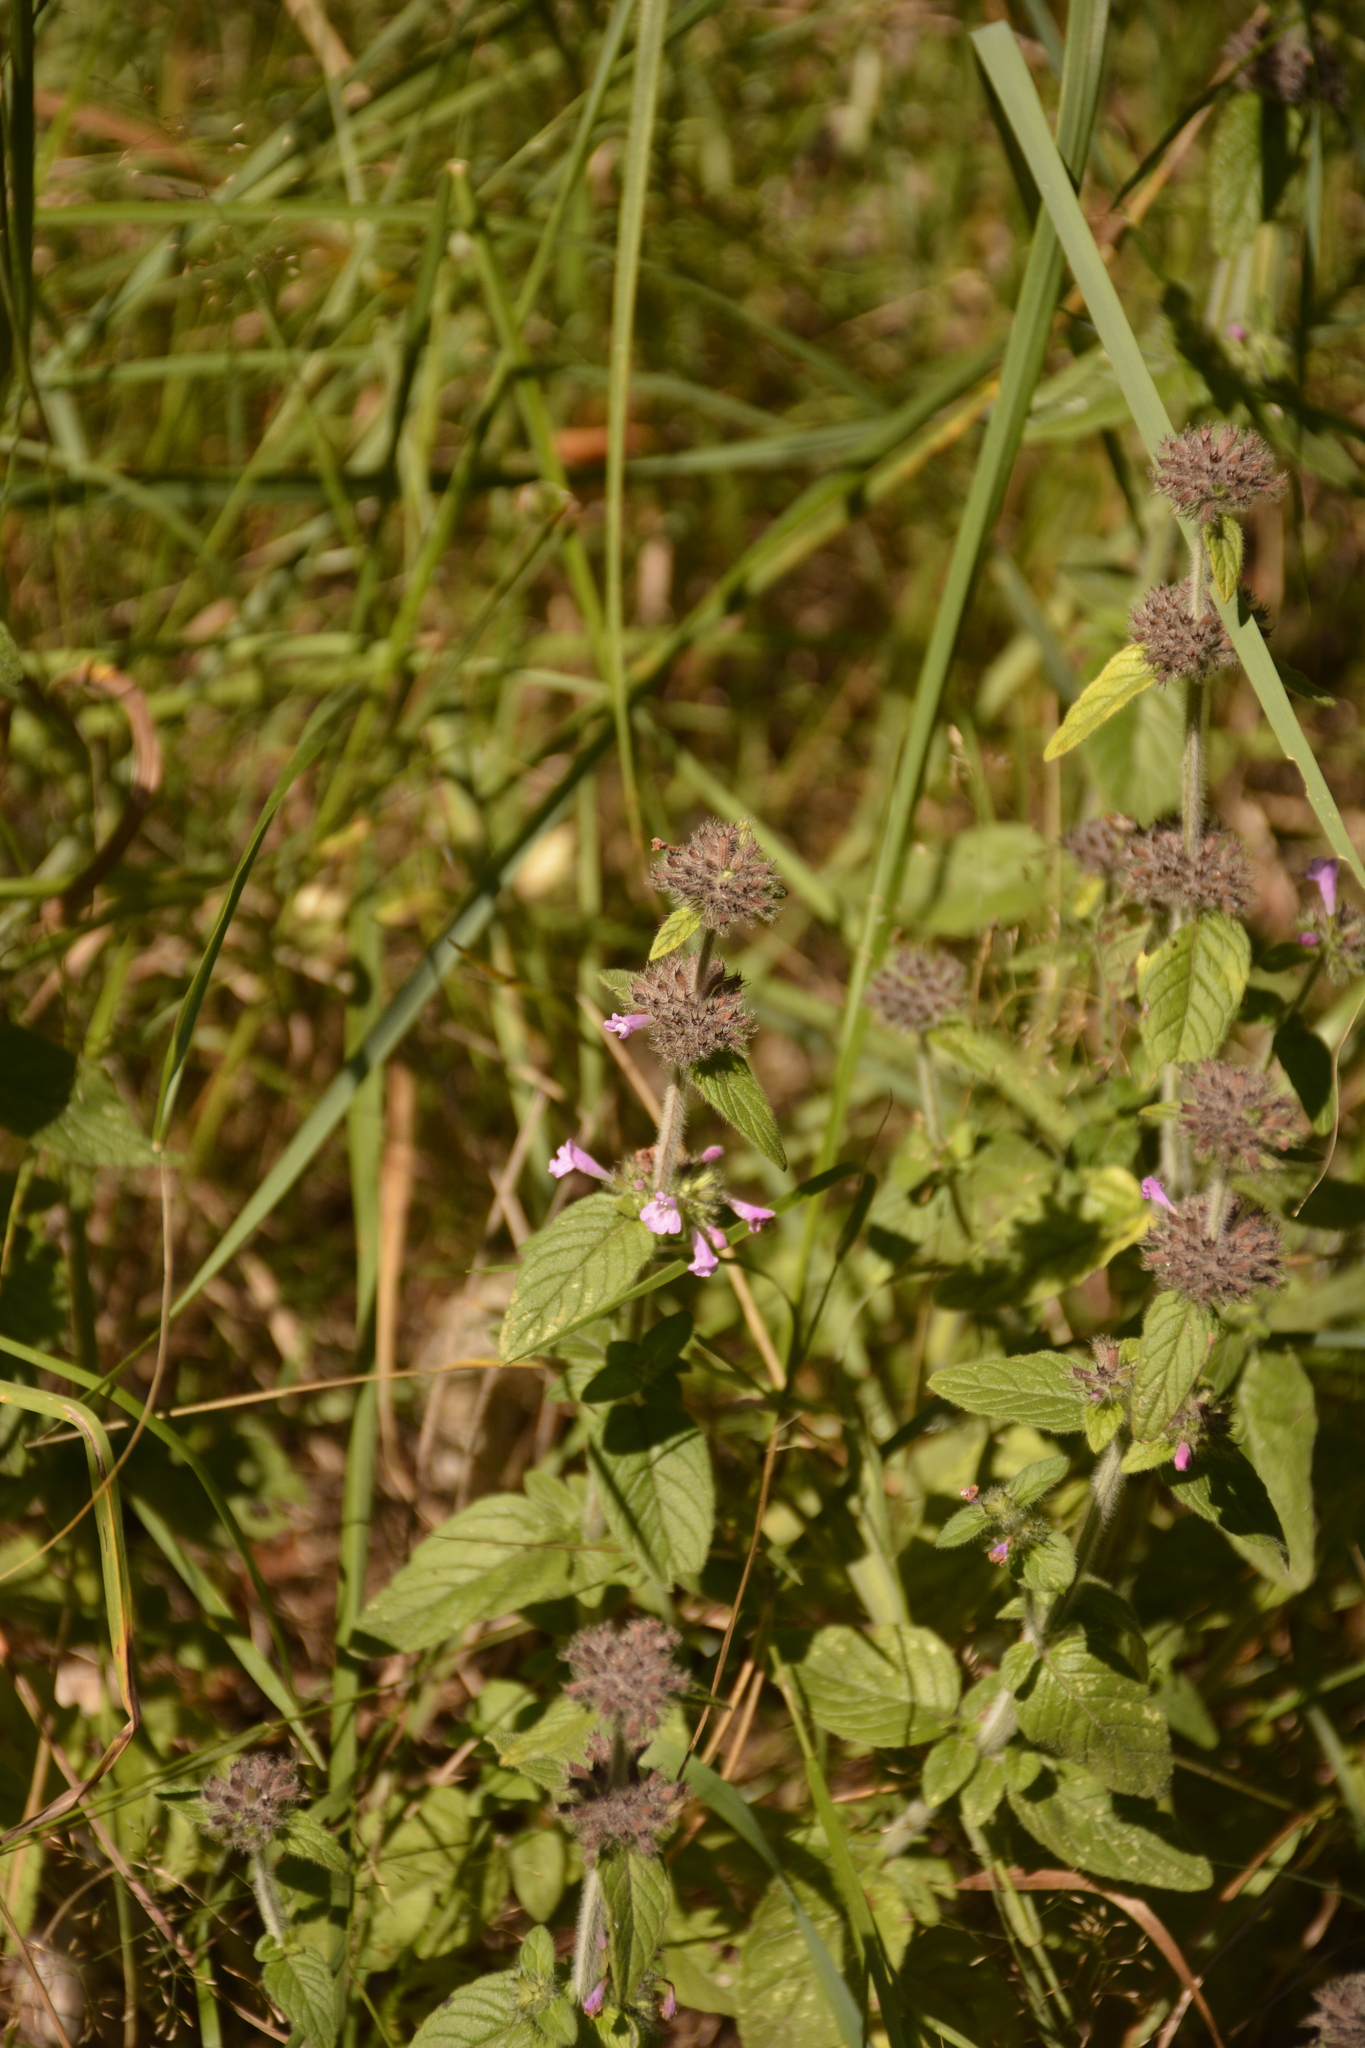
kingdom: Plantae
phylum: Tracheophyta
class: Magnoliopsida
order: Lamiales
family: Lamiaceae
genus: Clinopodium
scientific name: Clinopodium vulgare
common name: Wild basil
